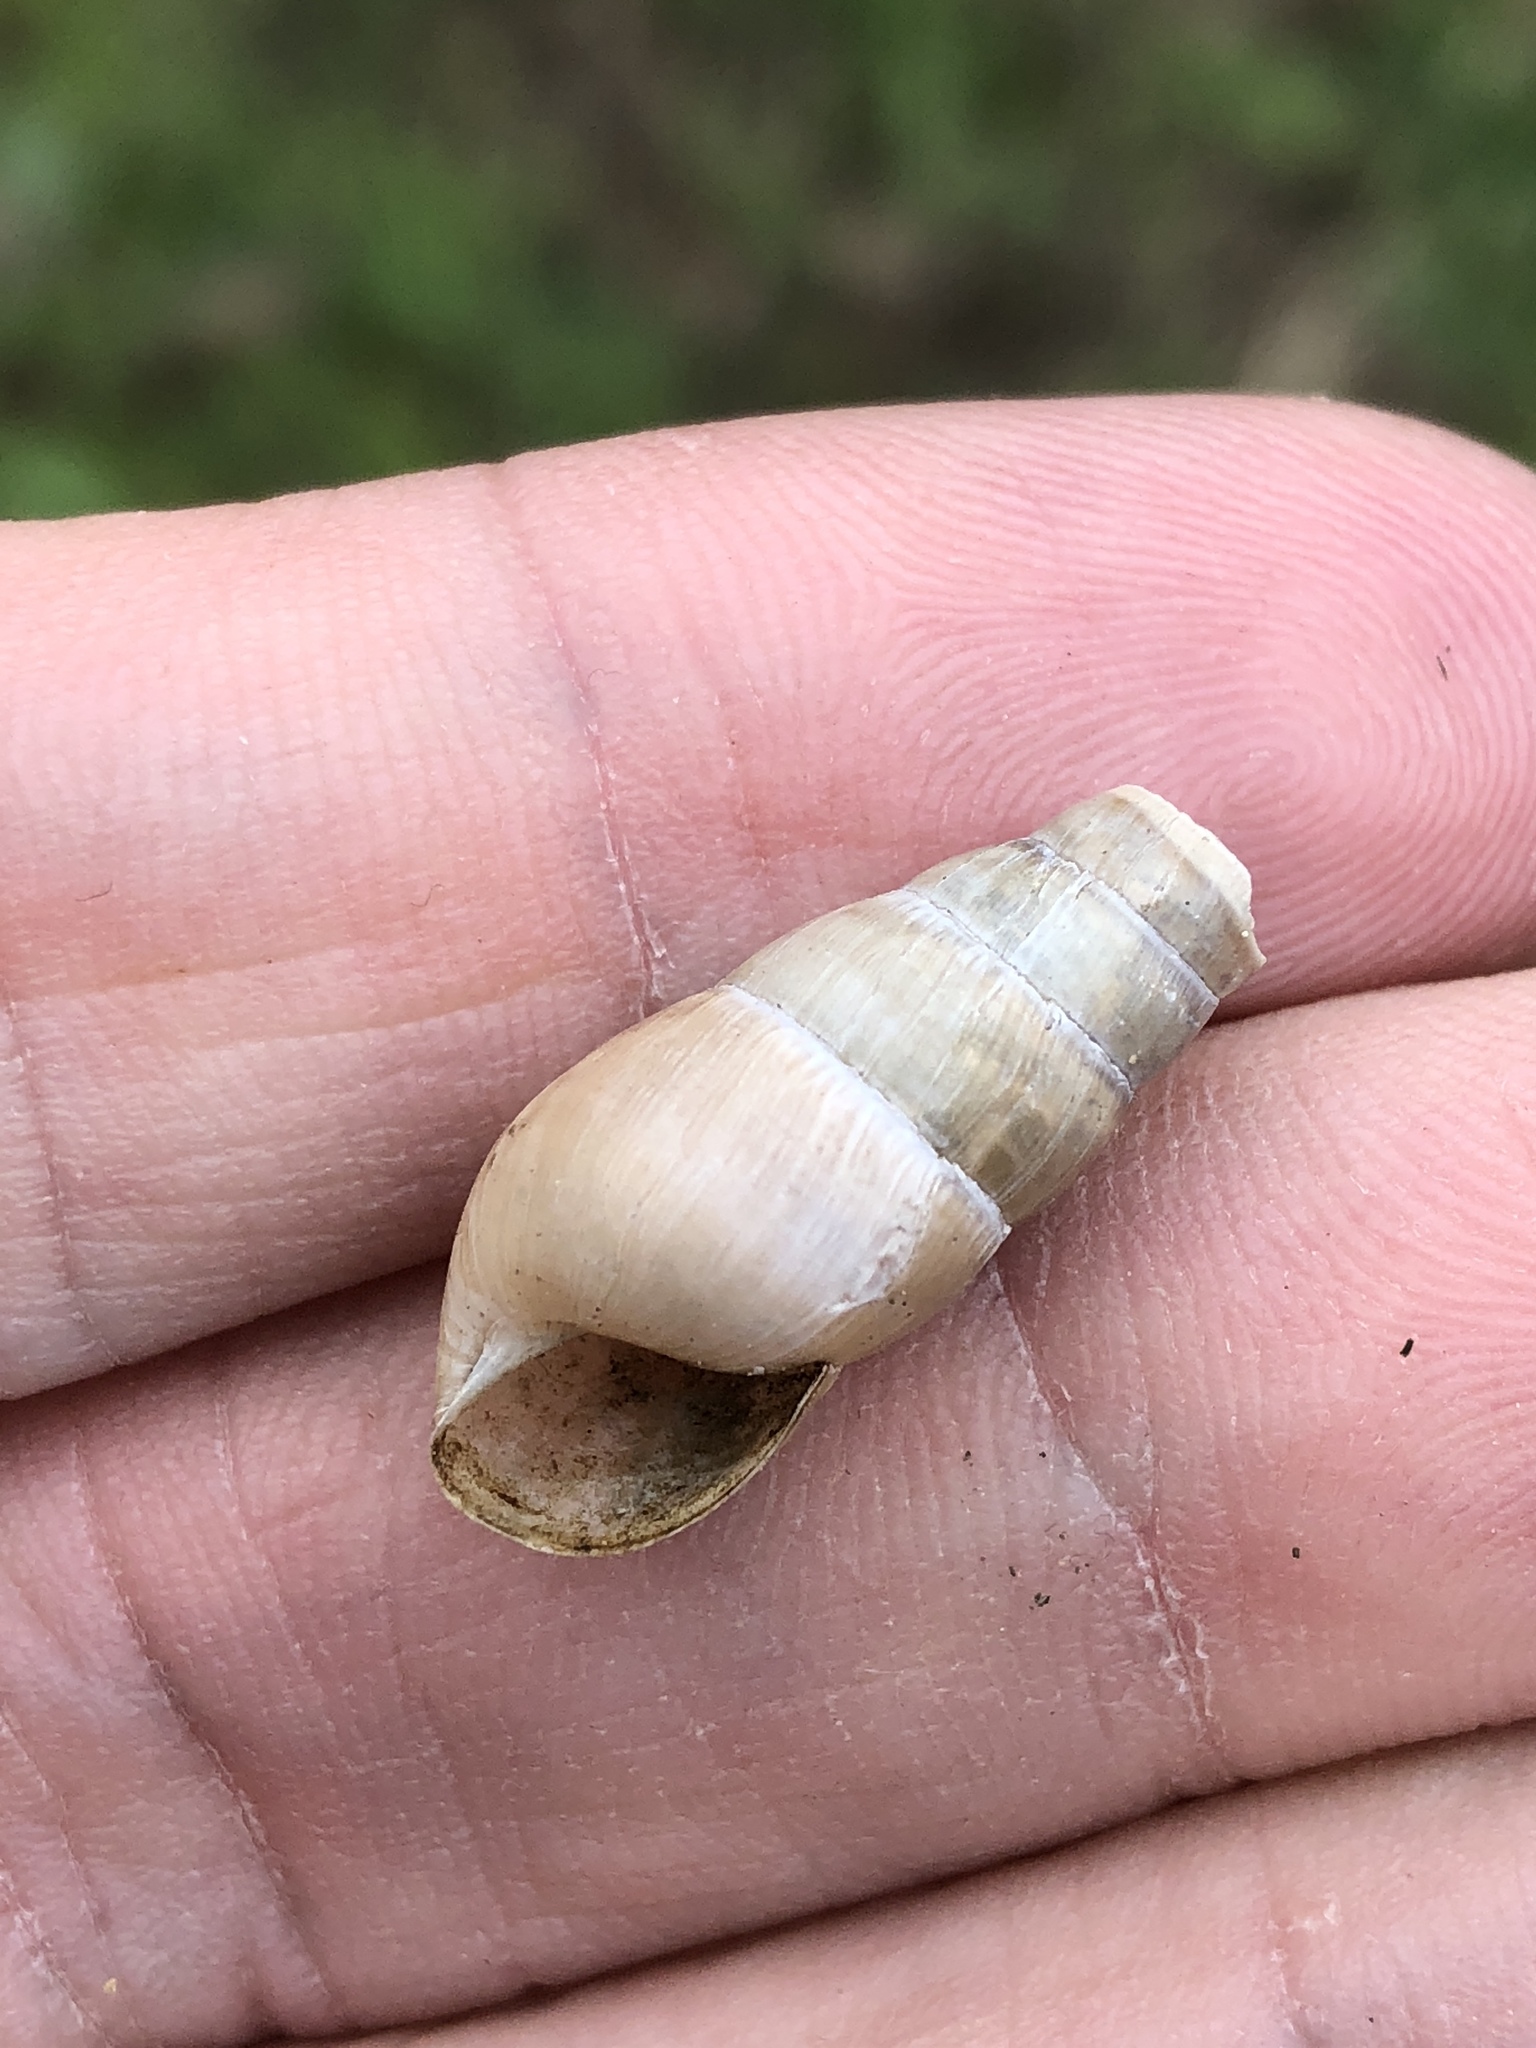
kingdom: Animalia
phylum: Mollusca
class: Gastropoda
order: Stylommatophora
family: Achatinidae
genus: Rumina
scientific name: Rumina decollata
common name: Decollate snail
